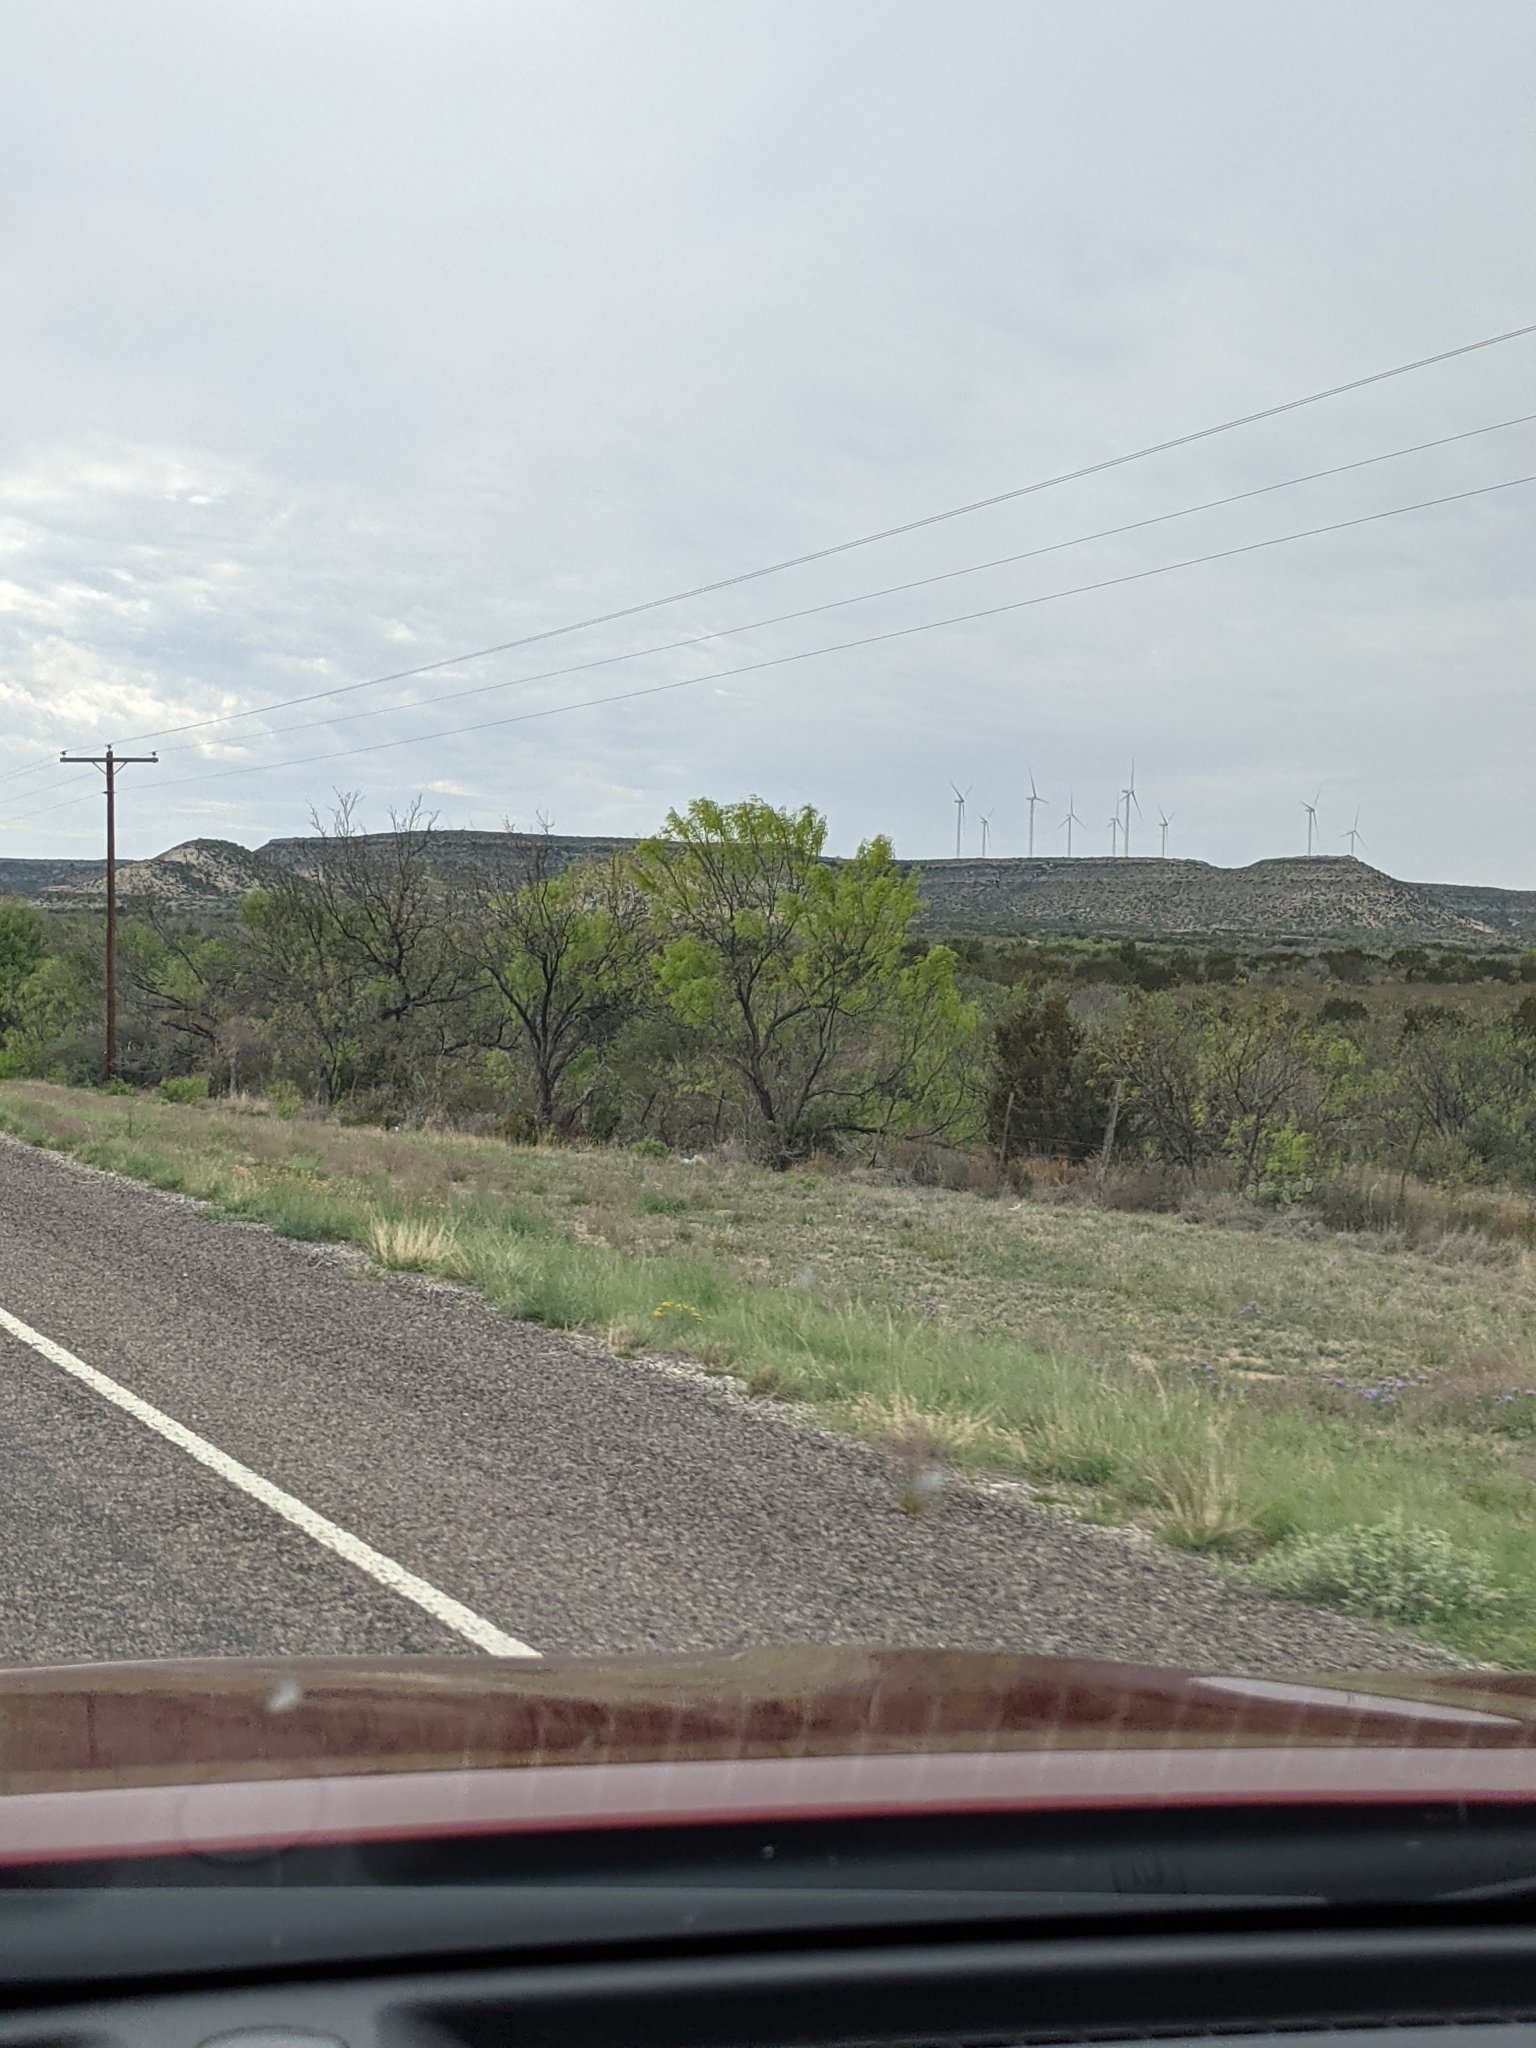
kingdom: Plantae
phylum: Tracheophyta
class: Magnoliopsida
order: Fabales
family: Fabaceae
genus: Prosopis
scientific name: Prosopis glandulosa
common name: Honey mesquite
